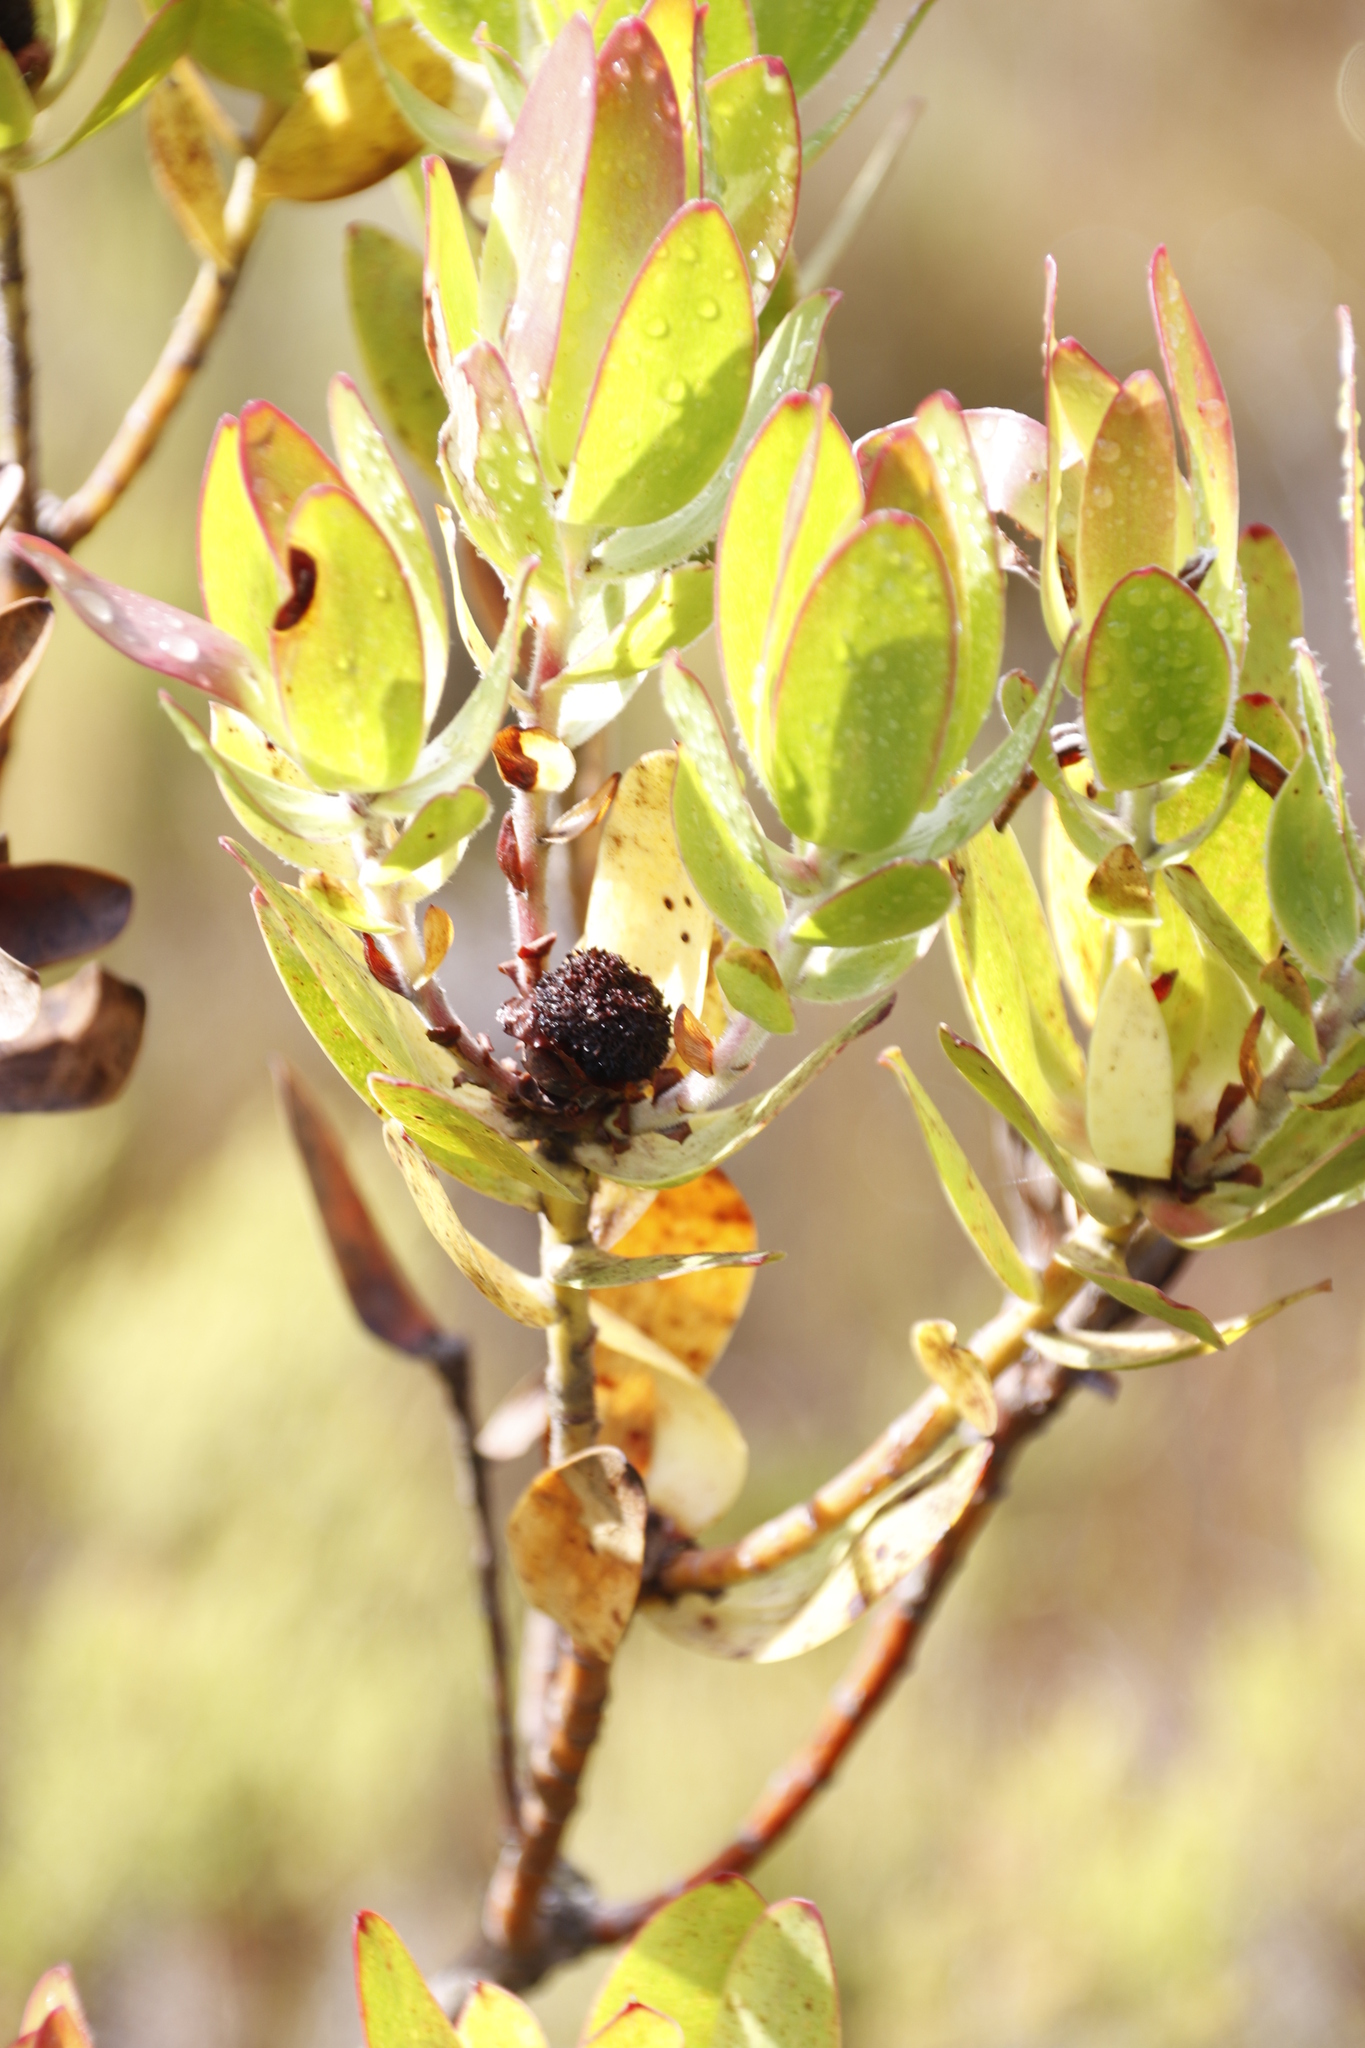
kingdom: Plantae
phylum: Tracheophyta
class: Magnoliopsida
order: Proteales
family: Proteaceae
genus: Leucadendron
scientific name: Leucadendron gandogeri
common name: Broad-leaf conebush
